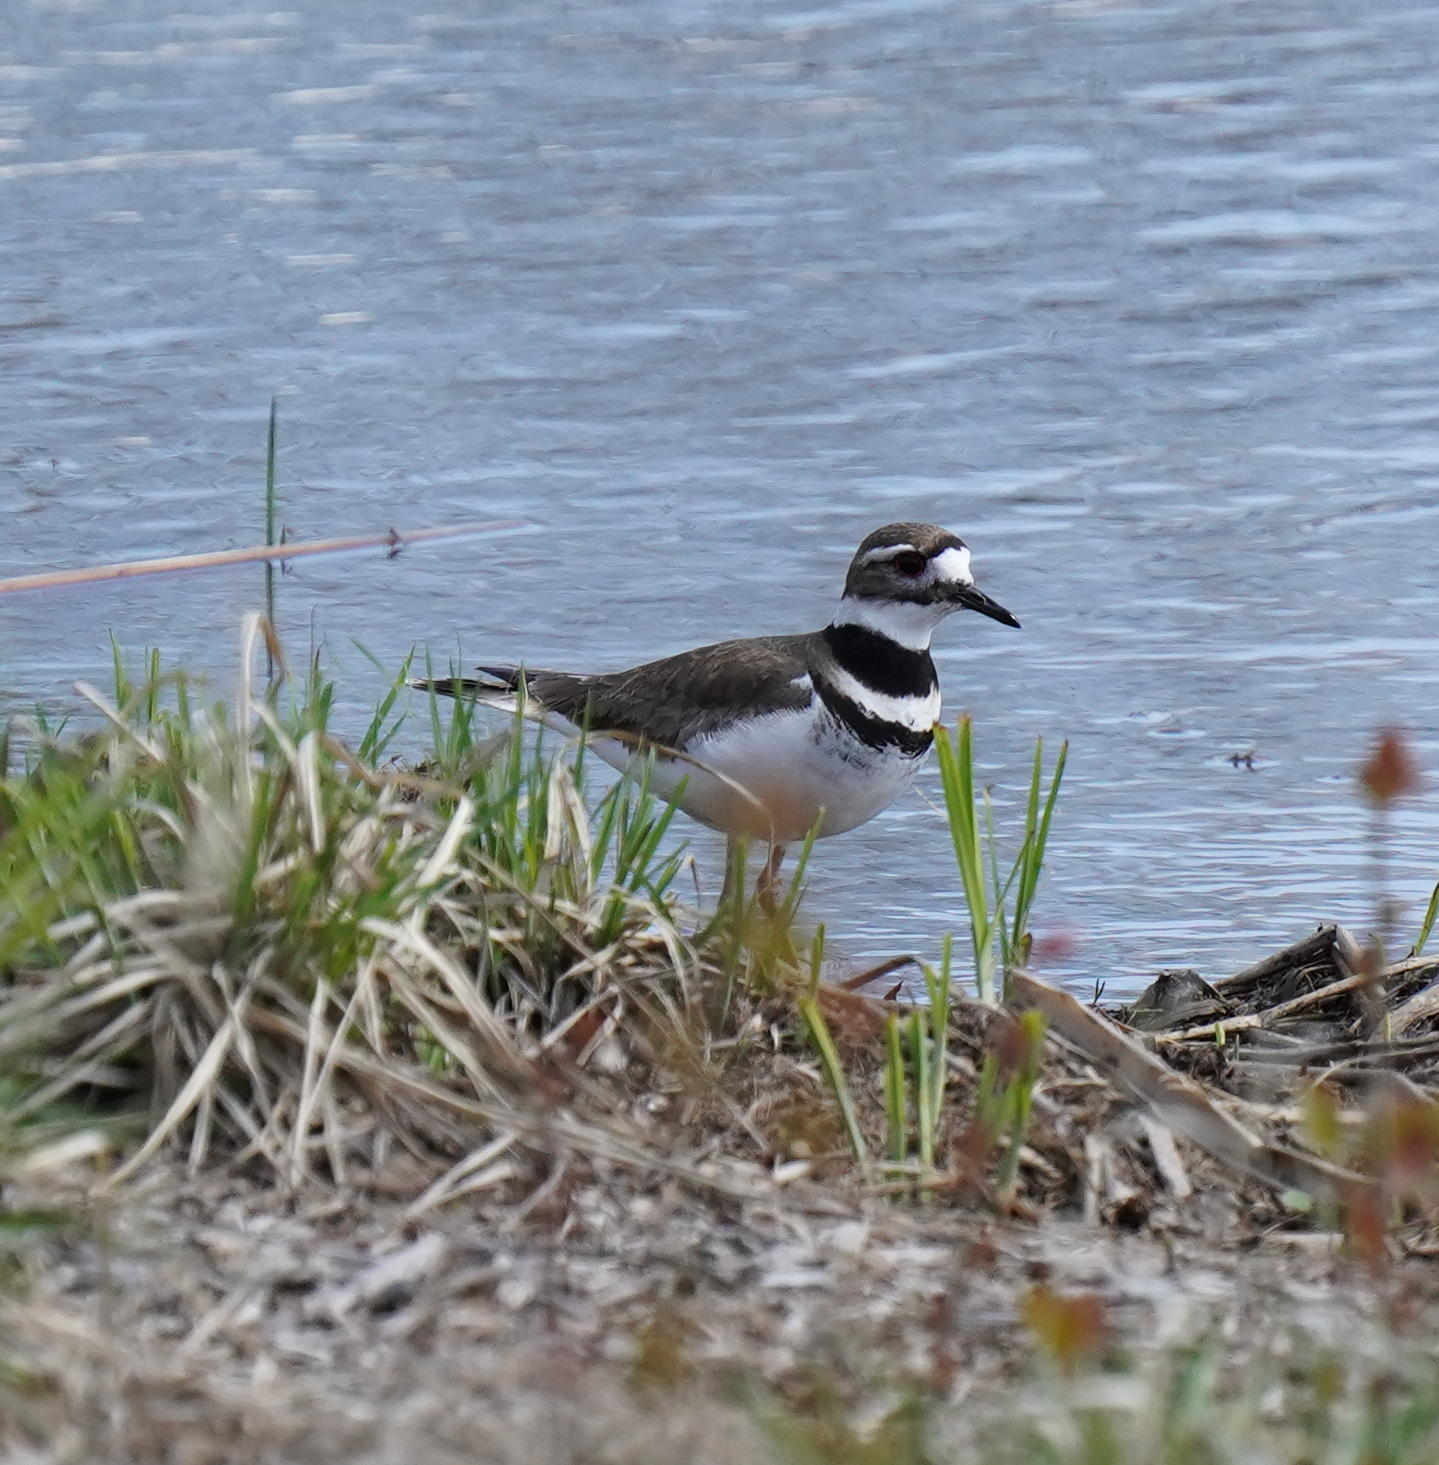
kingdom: Animalia
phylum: Chordata
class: Aves
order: Charadriiformes
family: Charadriidae
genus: Charadrius
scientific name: Charadrius vociferus
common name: Killdeer
